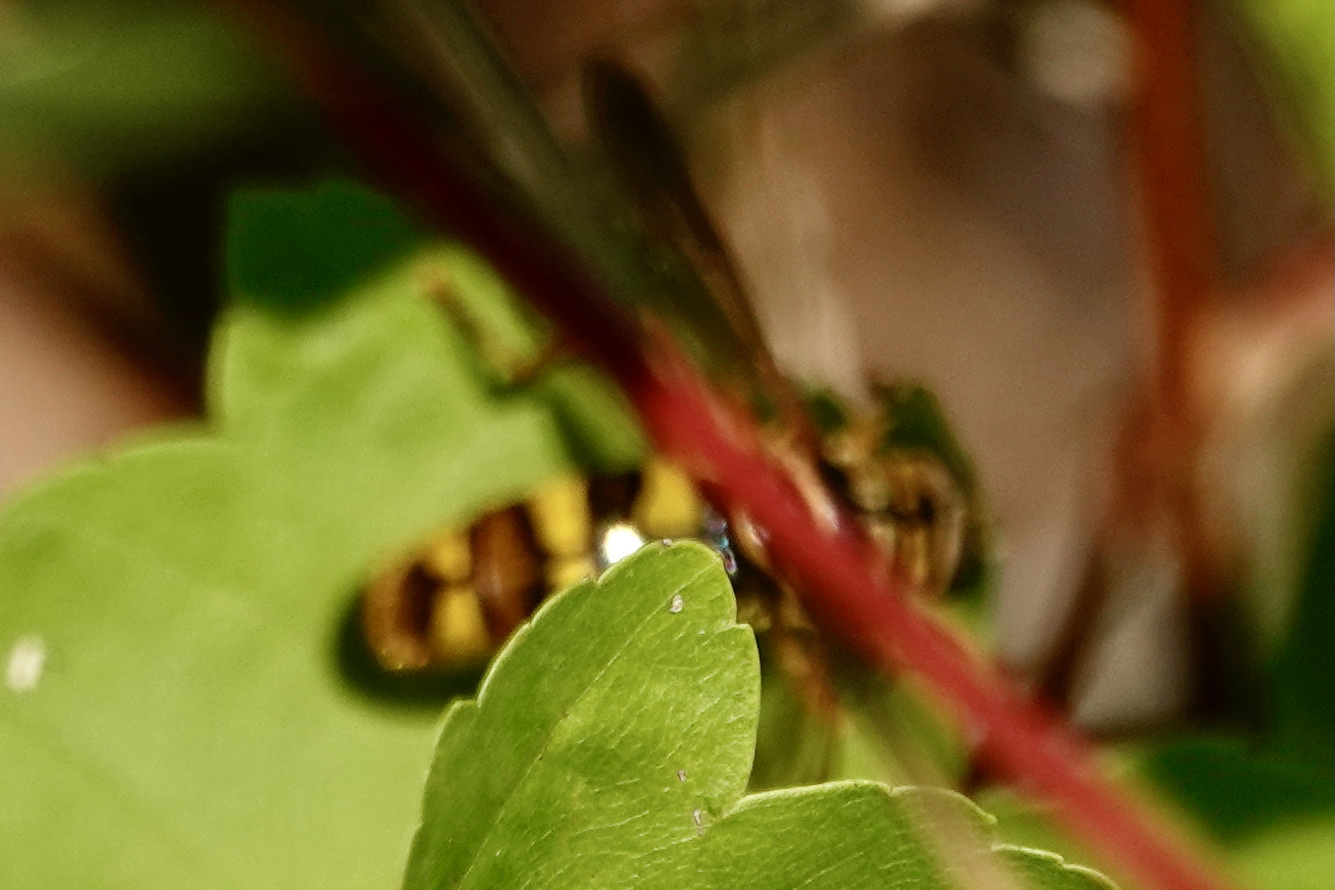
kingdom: Animalia
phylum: Arthropoda
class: Insecta
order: Diptera
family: Syrphidae
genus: Milesia
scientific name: Milesia virginiensis
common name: Virginia giant
